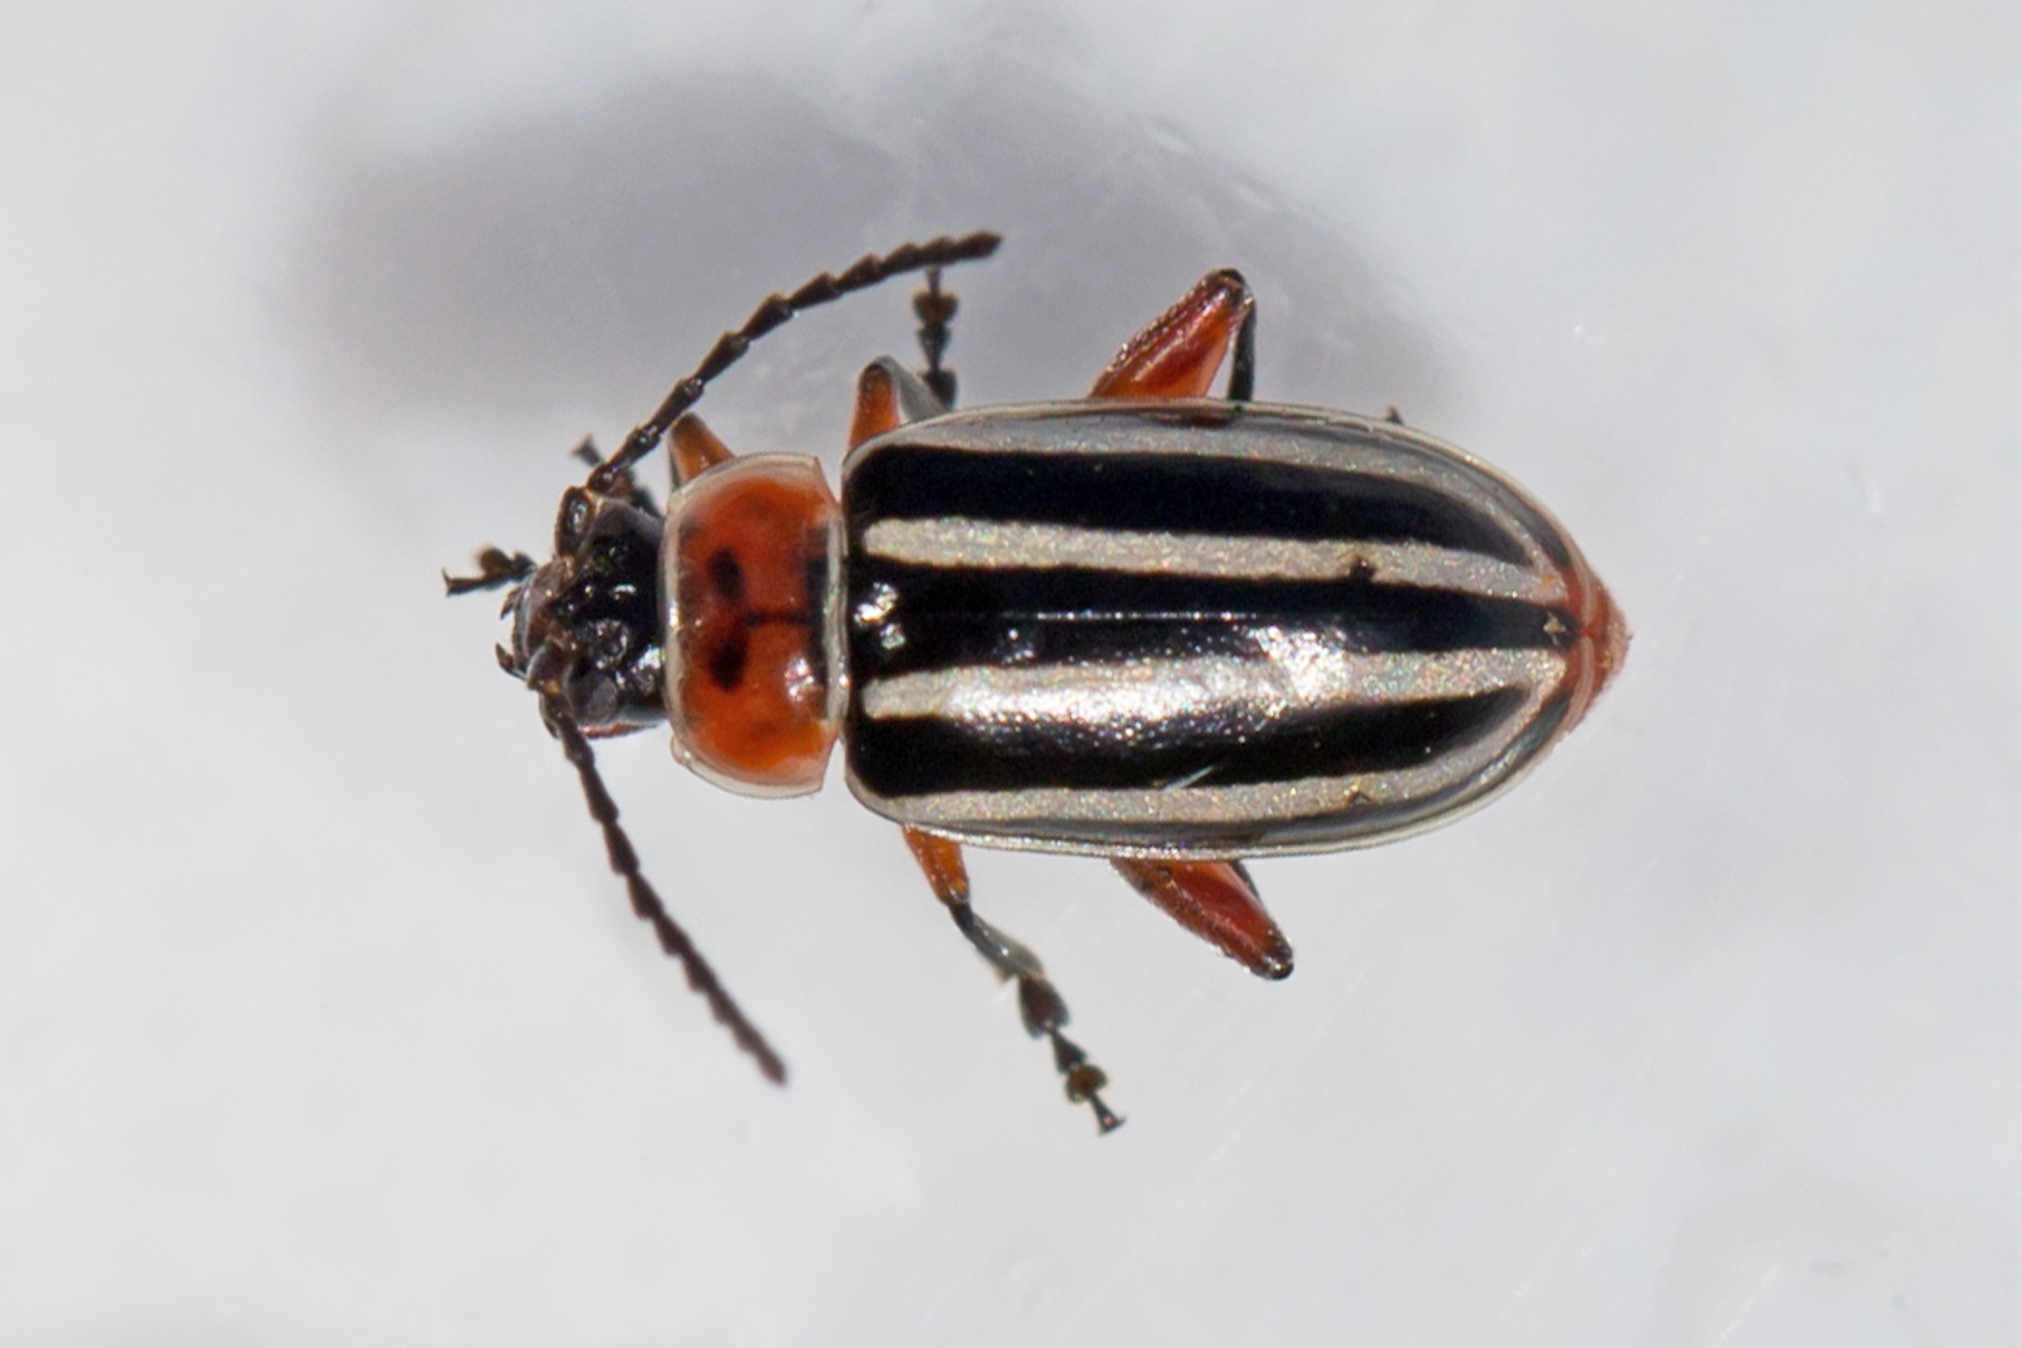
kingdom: Animalia
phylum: Arthropoda
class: Insecta
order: Coleoptera
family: Chrysomelidae
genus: Disonycha
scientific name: Disonycha procera
